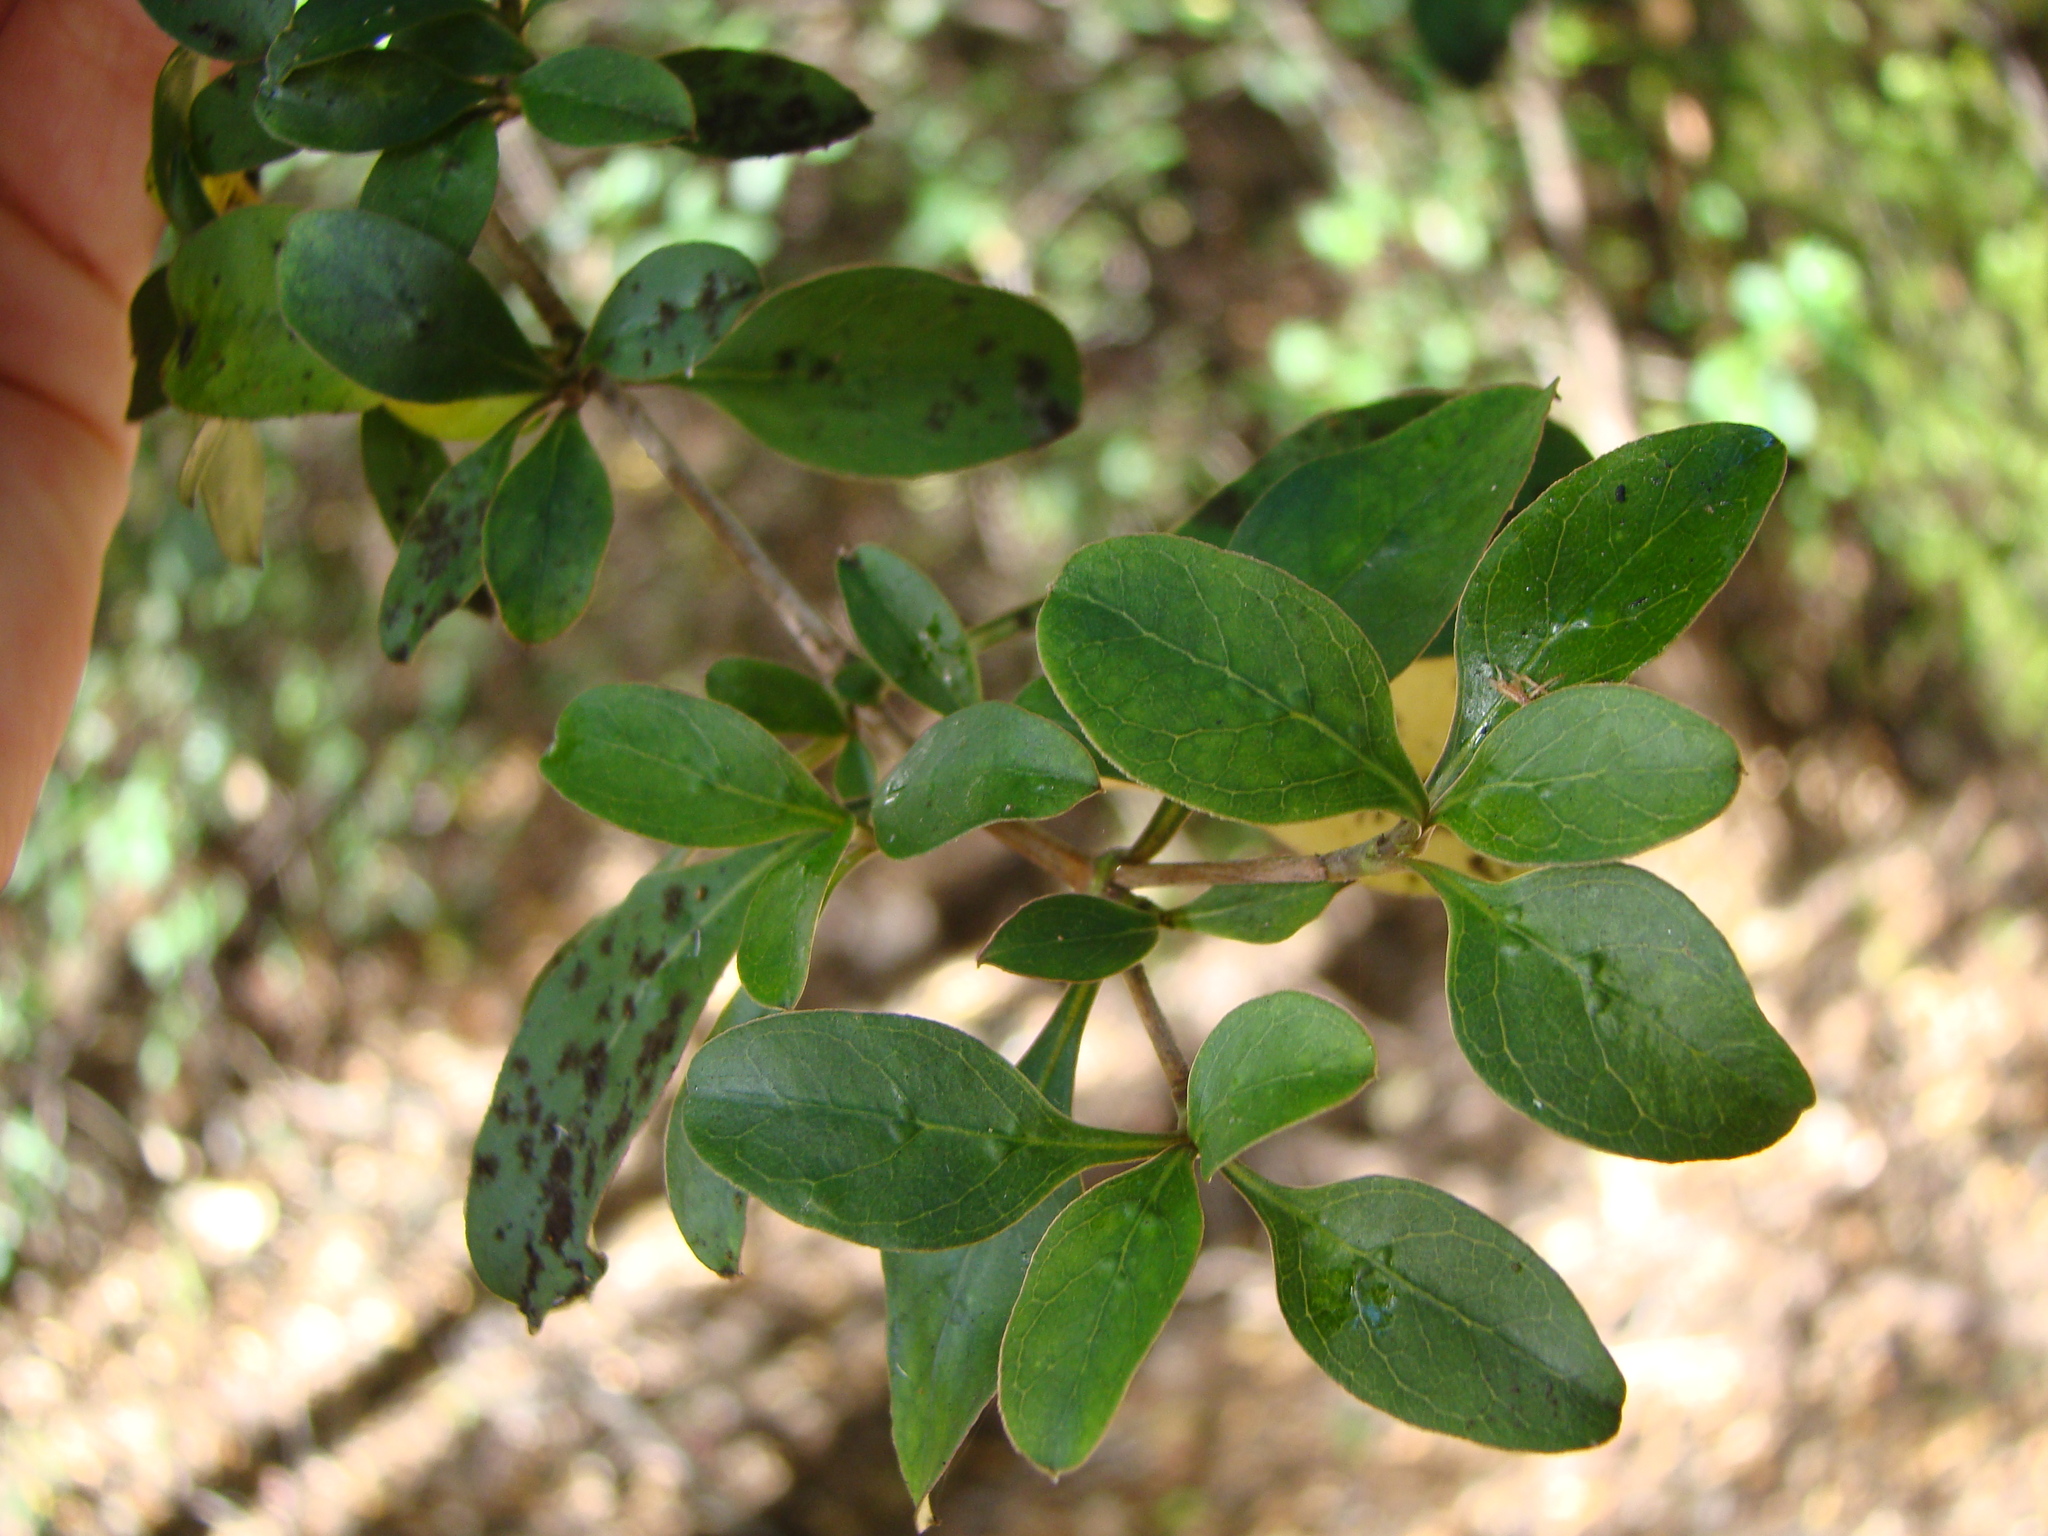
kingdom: Plantae
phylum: Tracheophyta
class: Magnoliopsida
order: Gentianales
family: Rubiaceae
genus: Coprosma
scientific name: Coprosma foetidissima
